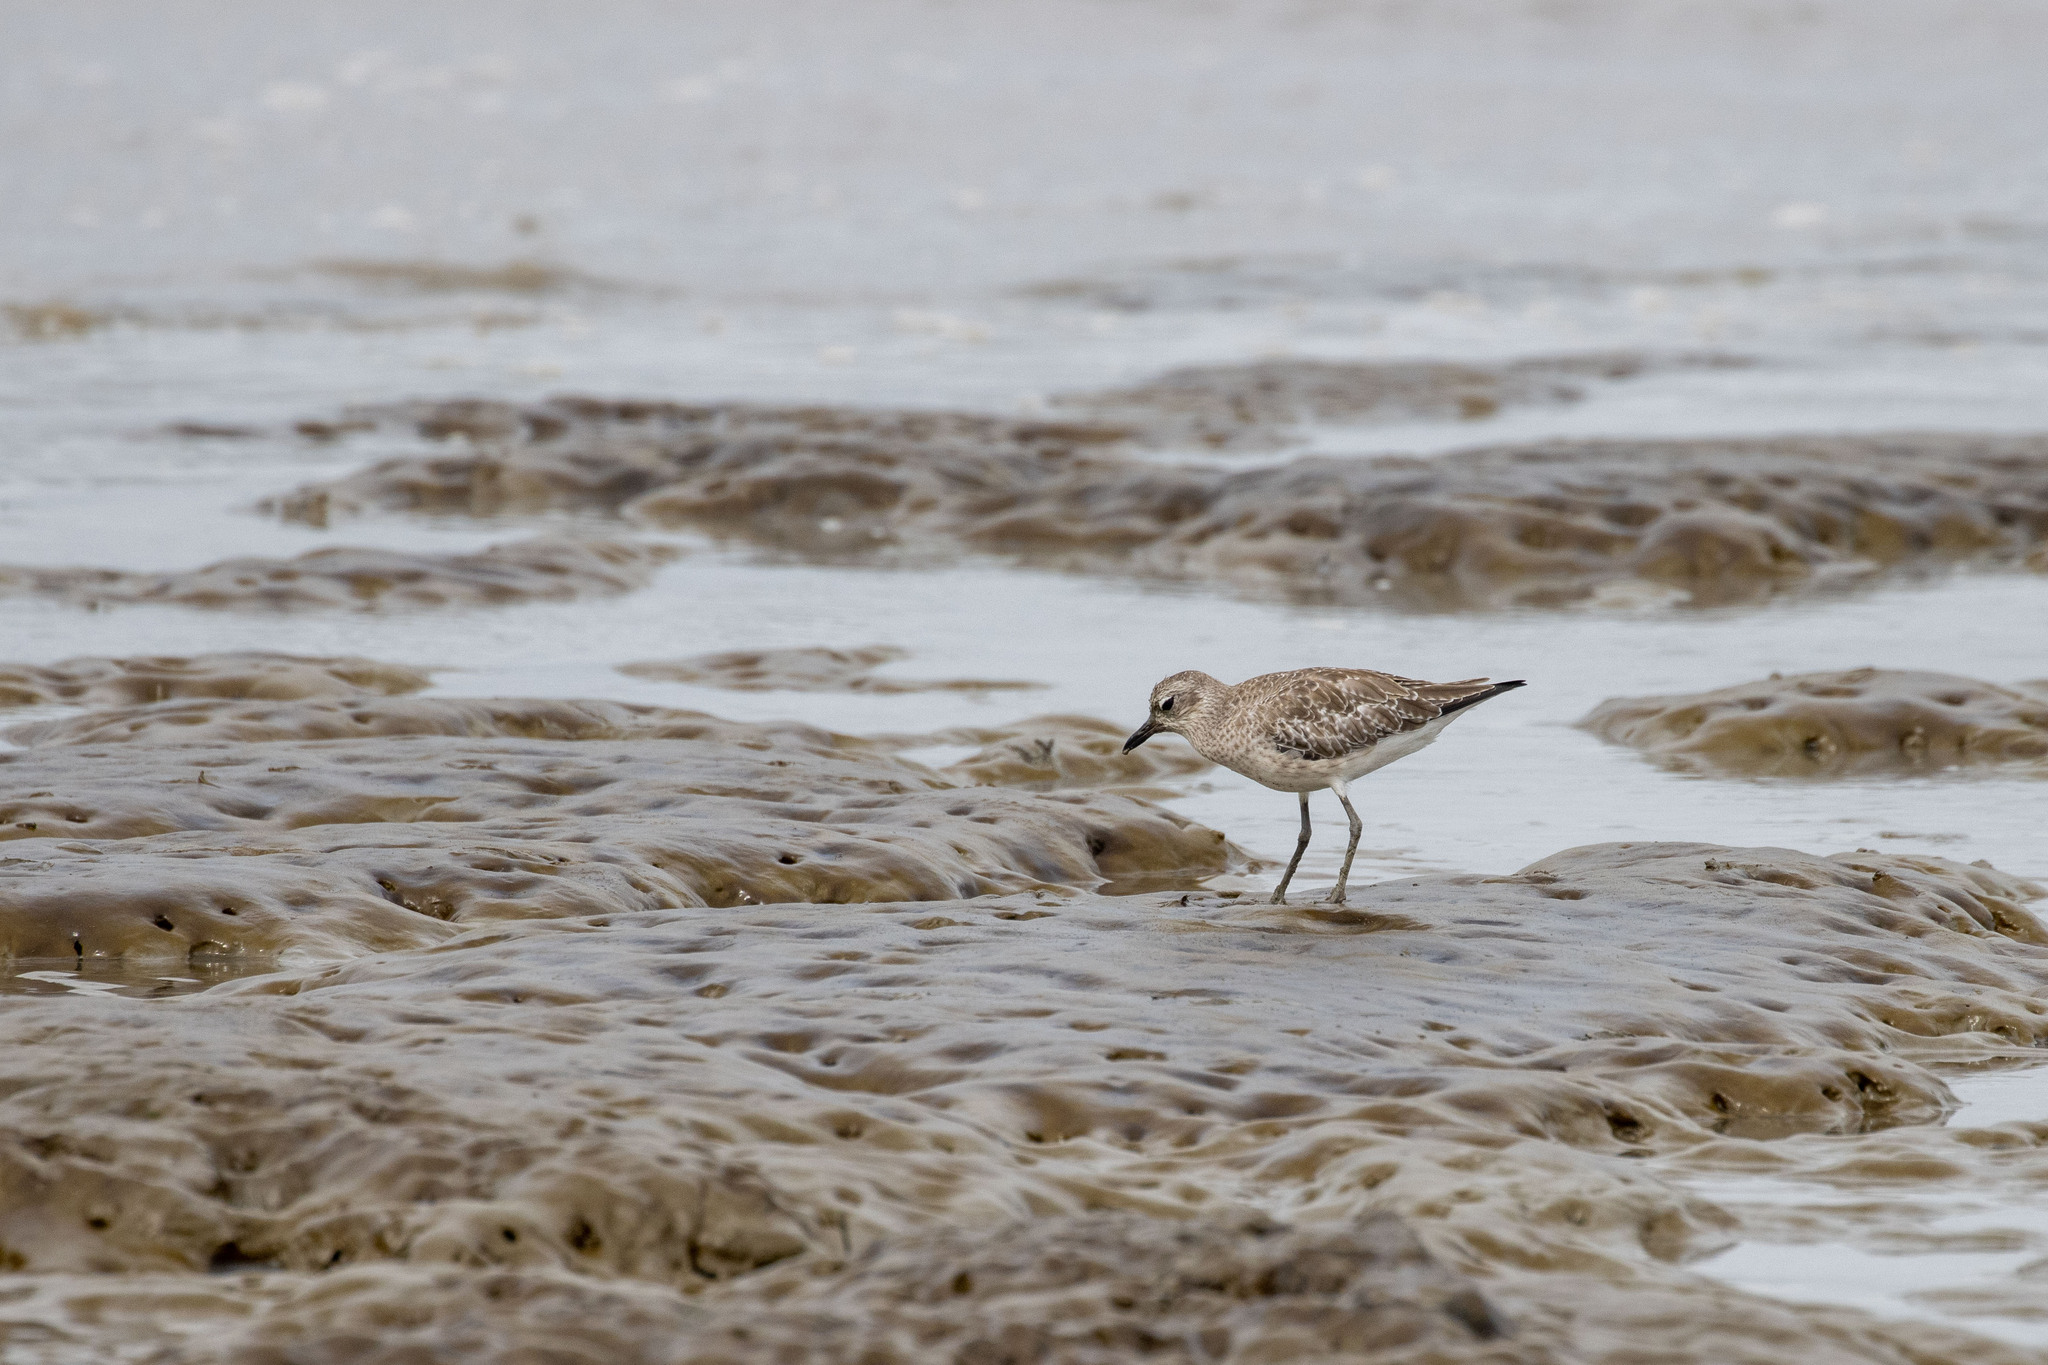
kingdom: Animalia
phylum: Chordata
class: Aves
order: Charadriiformes
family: Charadriidae
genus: Pluvialis
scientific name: Pluvialis squatarola
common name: Grey plover
